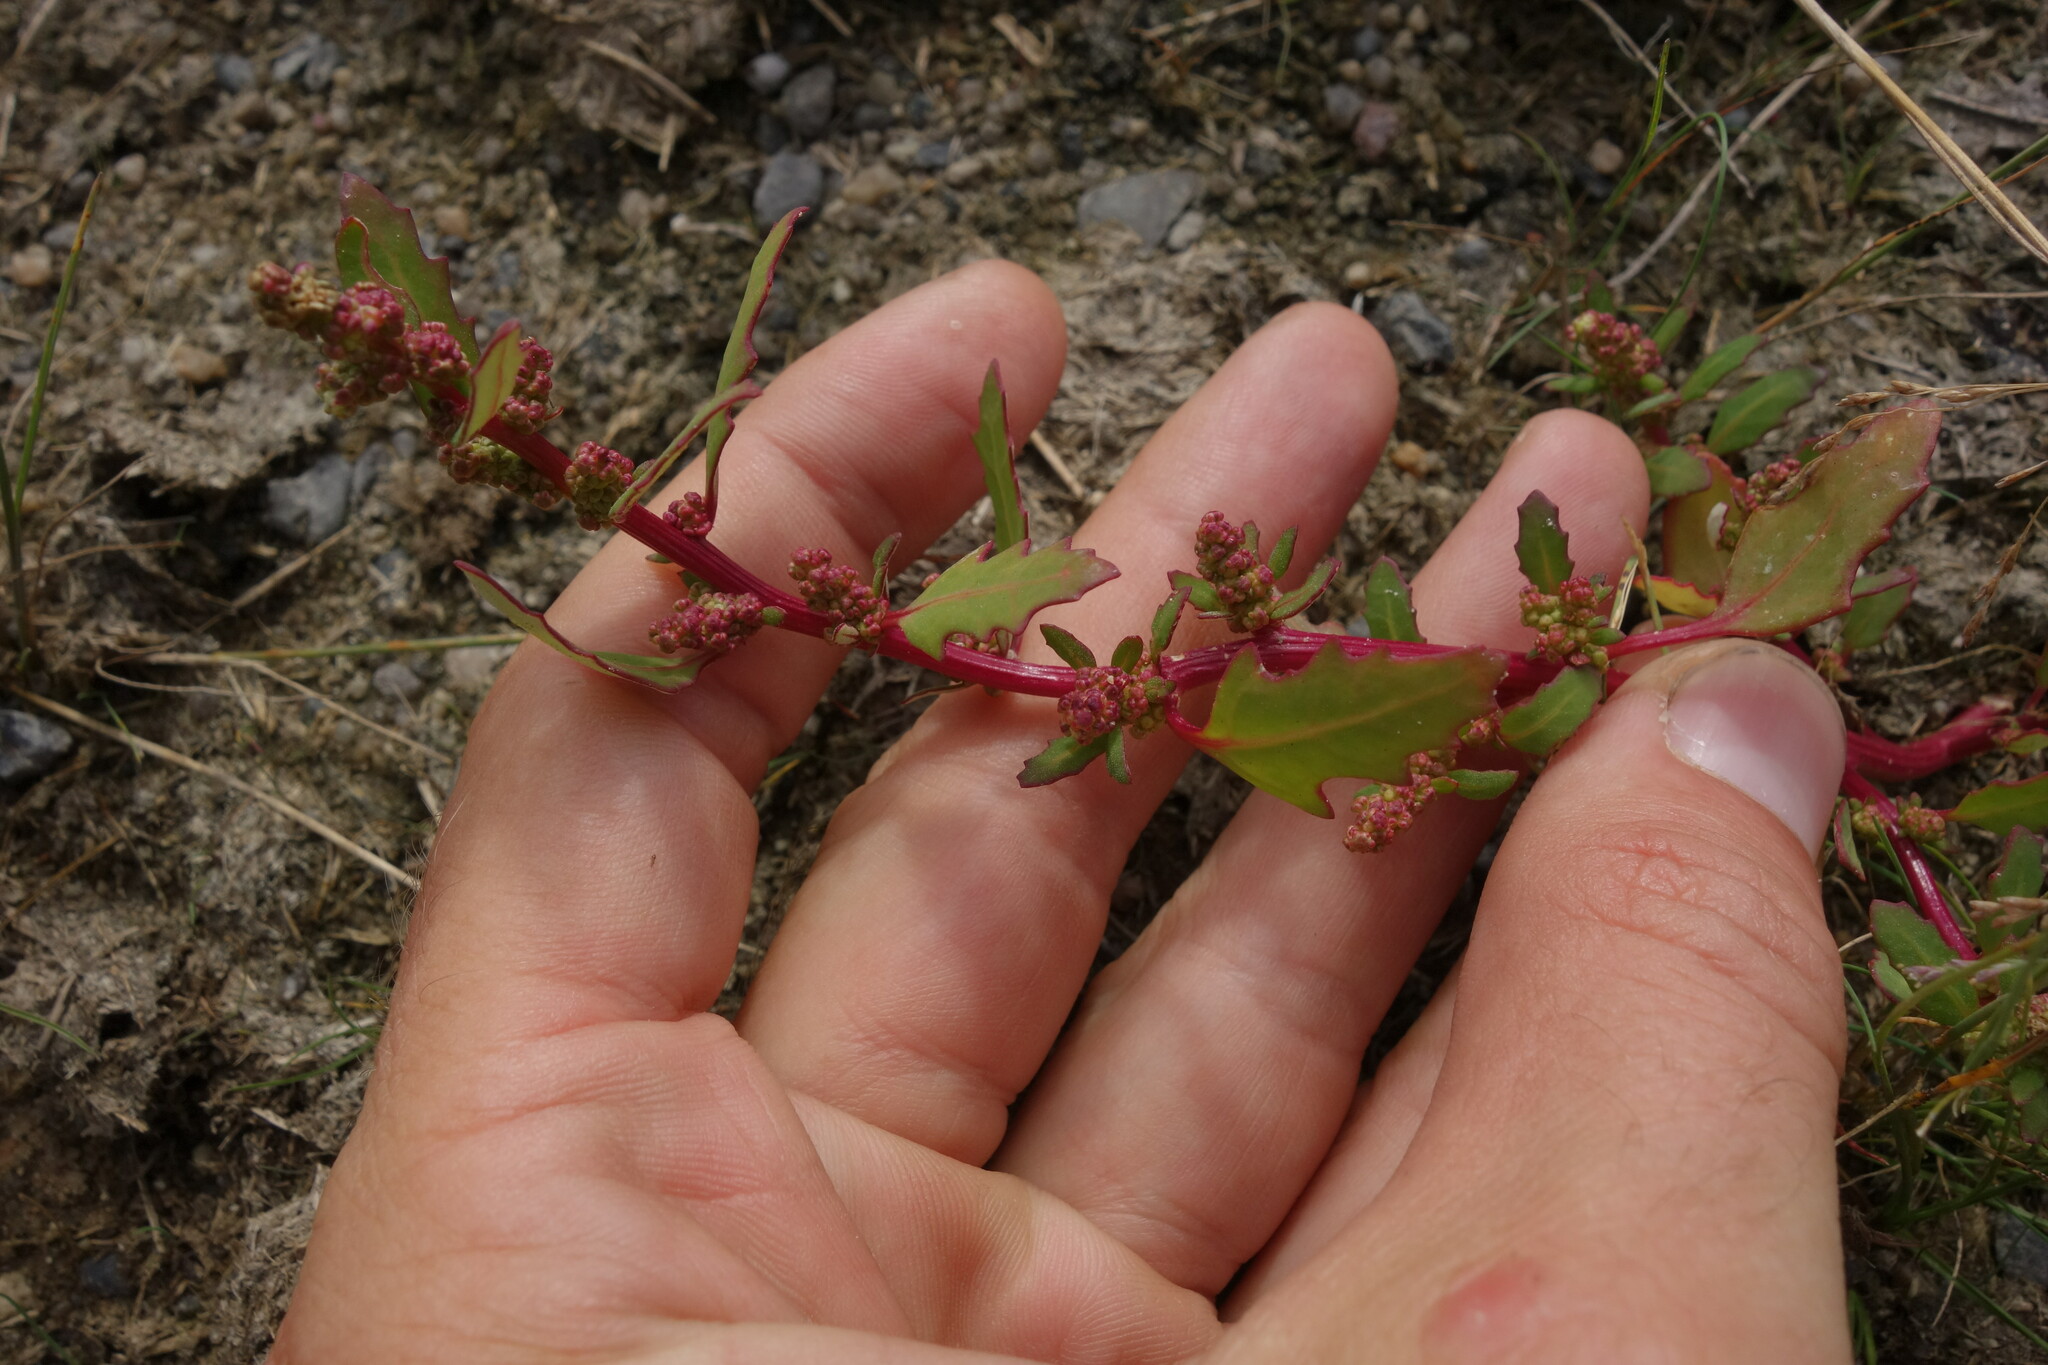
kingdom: Plantae
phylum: Tracheophyta
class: Magnoliopsida
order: Caryophyllales
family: Amaranthaceae
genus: Oxybasis
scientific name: Oxybasis glauca
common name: Glaucous goosefoot
